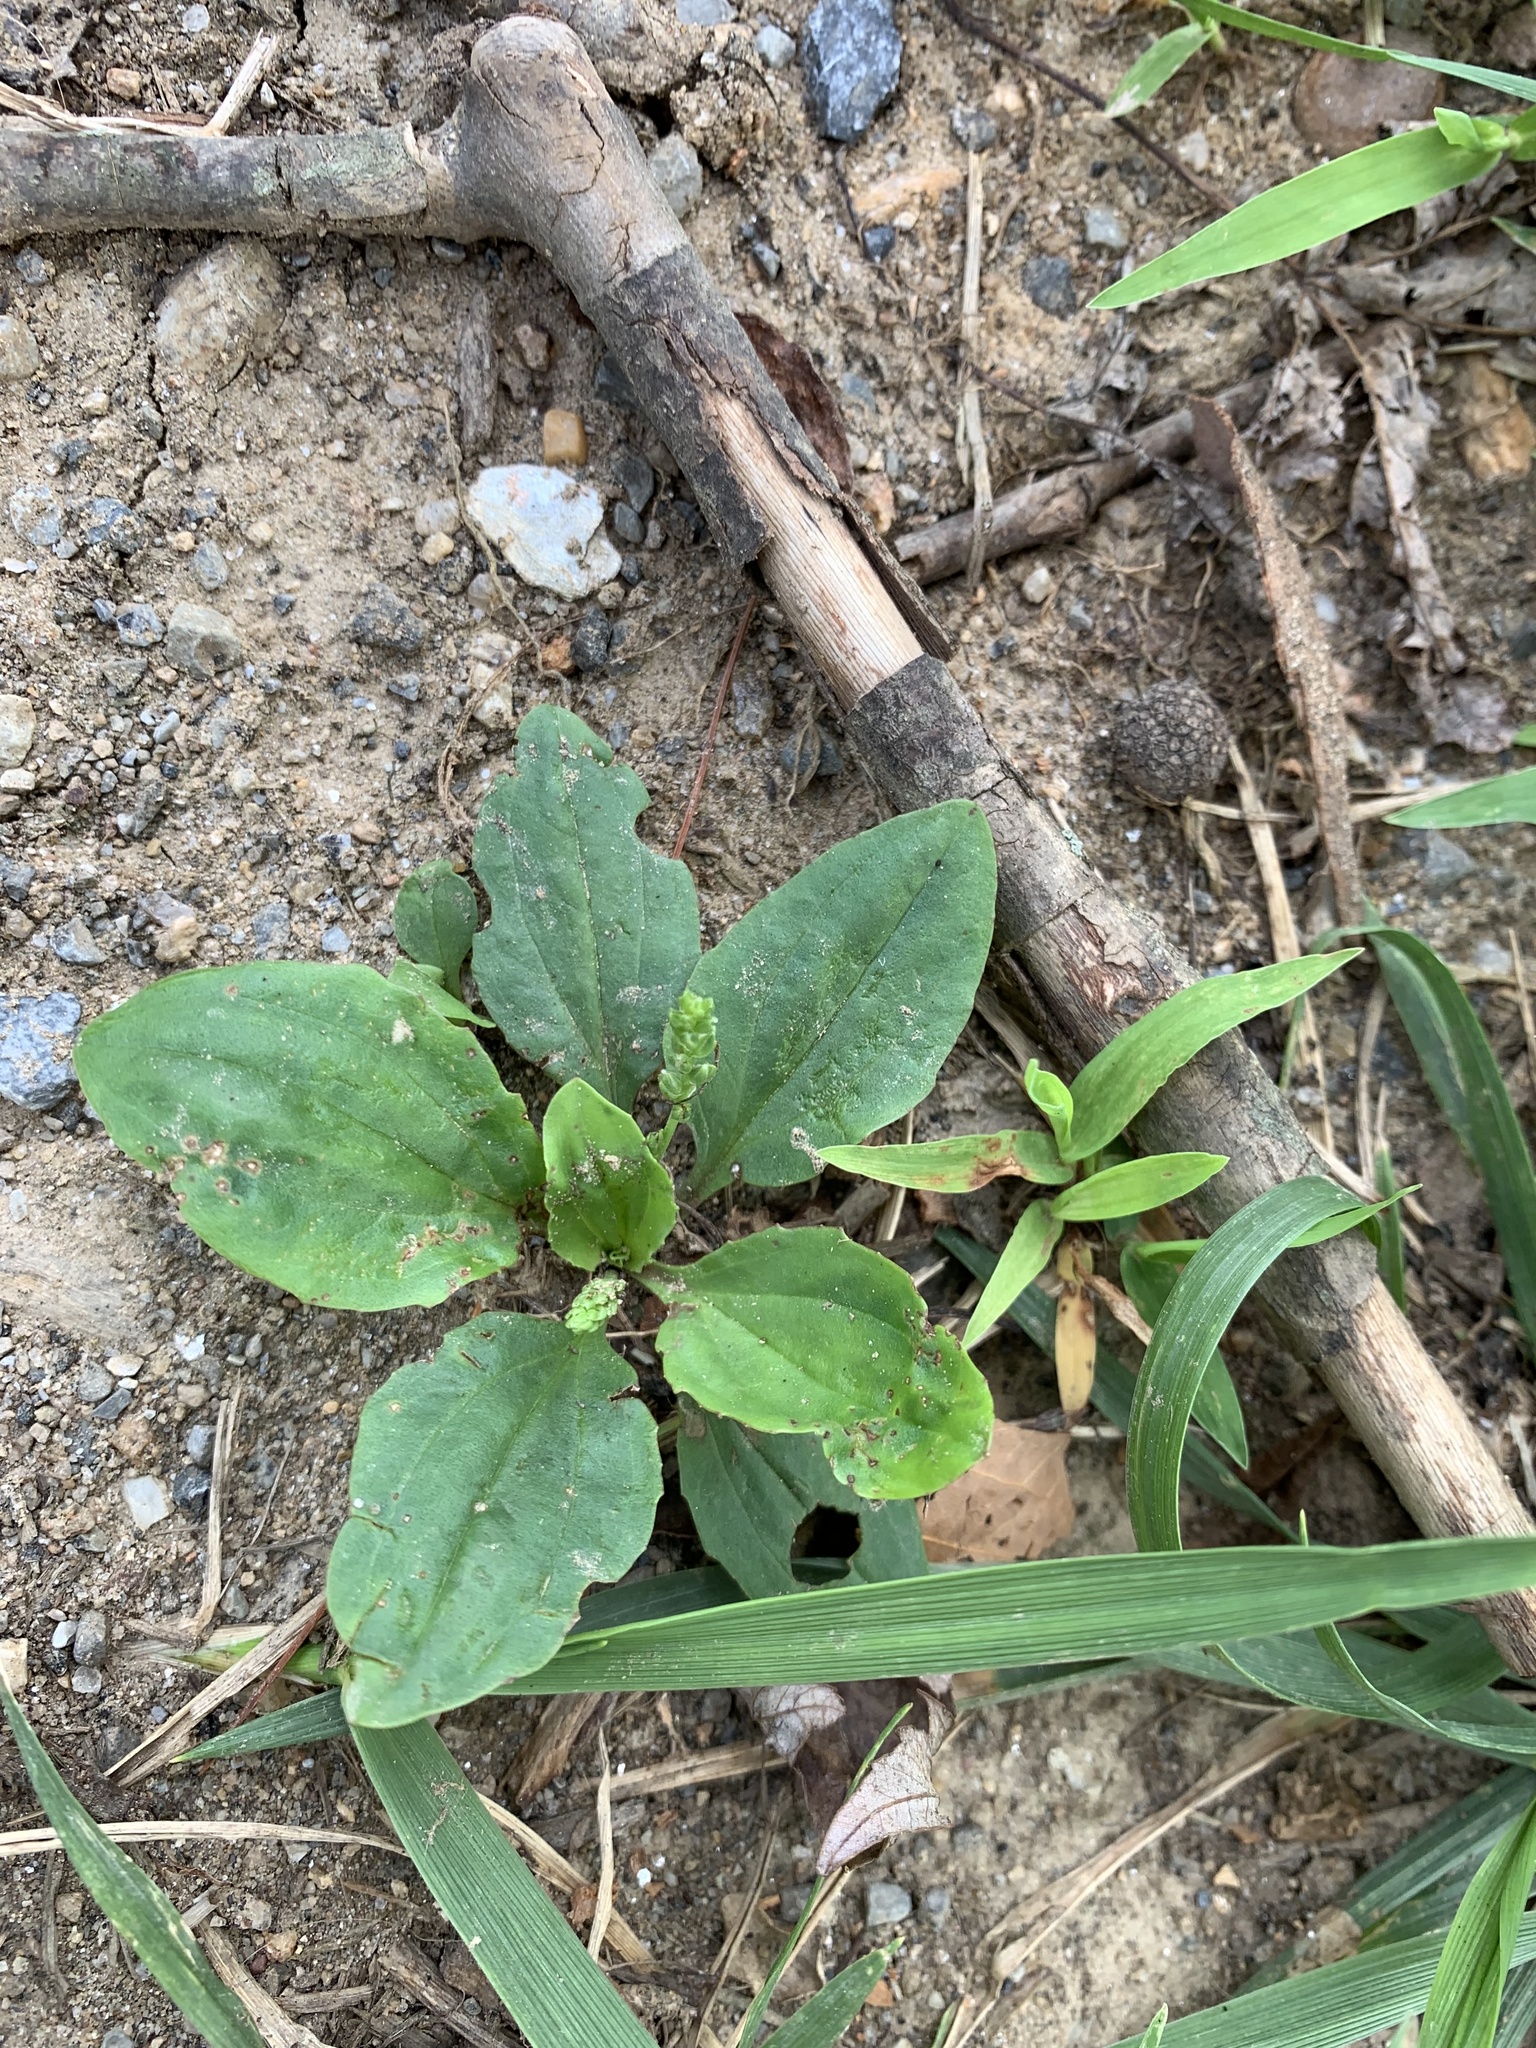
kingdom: Plantae
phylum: Tracheophyta
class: Magnoliopsida
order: Lamiales
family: Plantaginaceae
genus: Plantago
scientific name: Plantago rugelii
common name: American plantain
